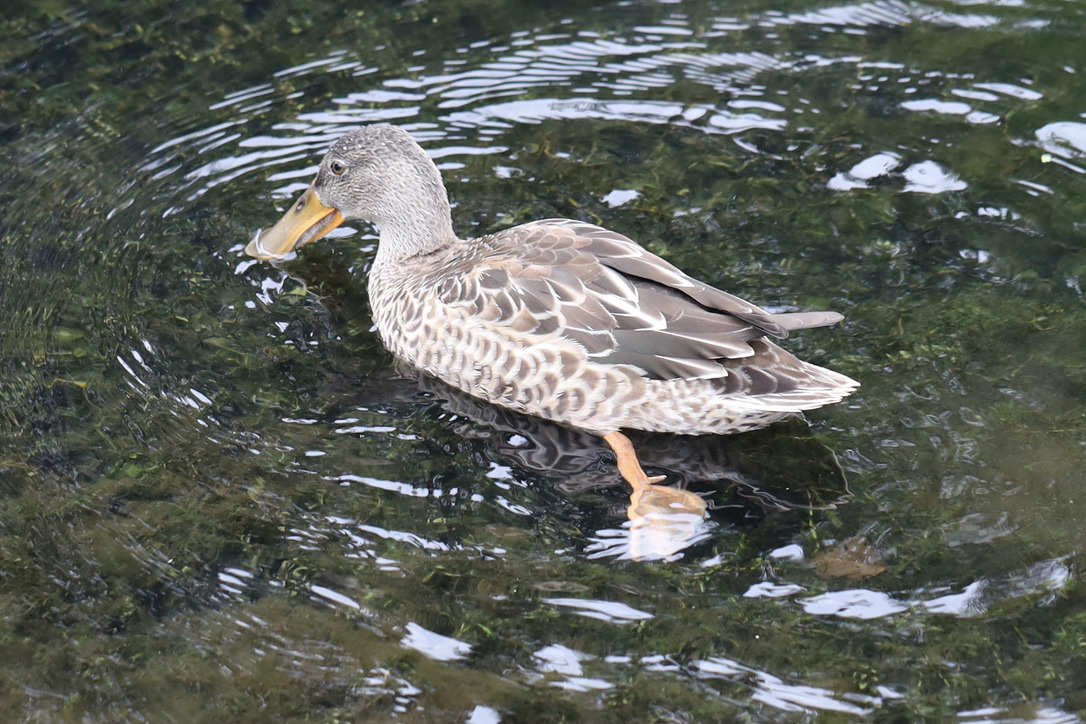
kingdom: Animalia
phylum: Chordata
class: Aves
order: Anseriformes
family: Anatidae
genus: Spatula
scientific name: Spatula clypeata
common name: Northern shoveler
